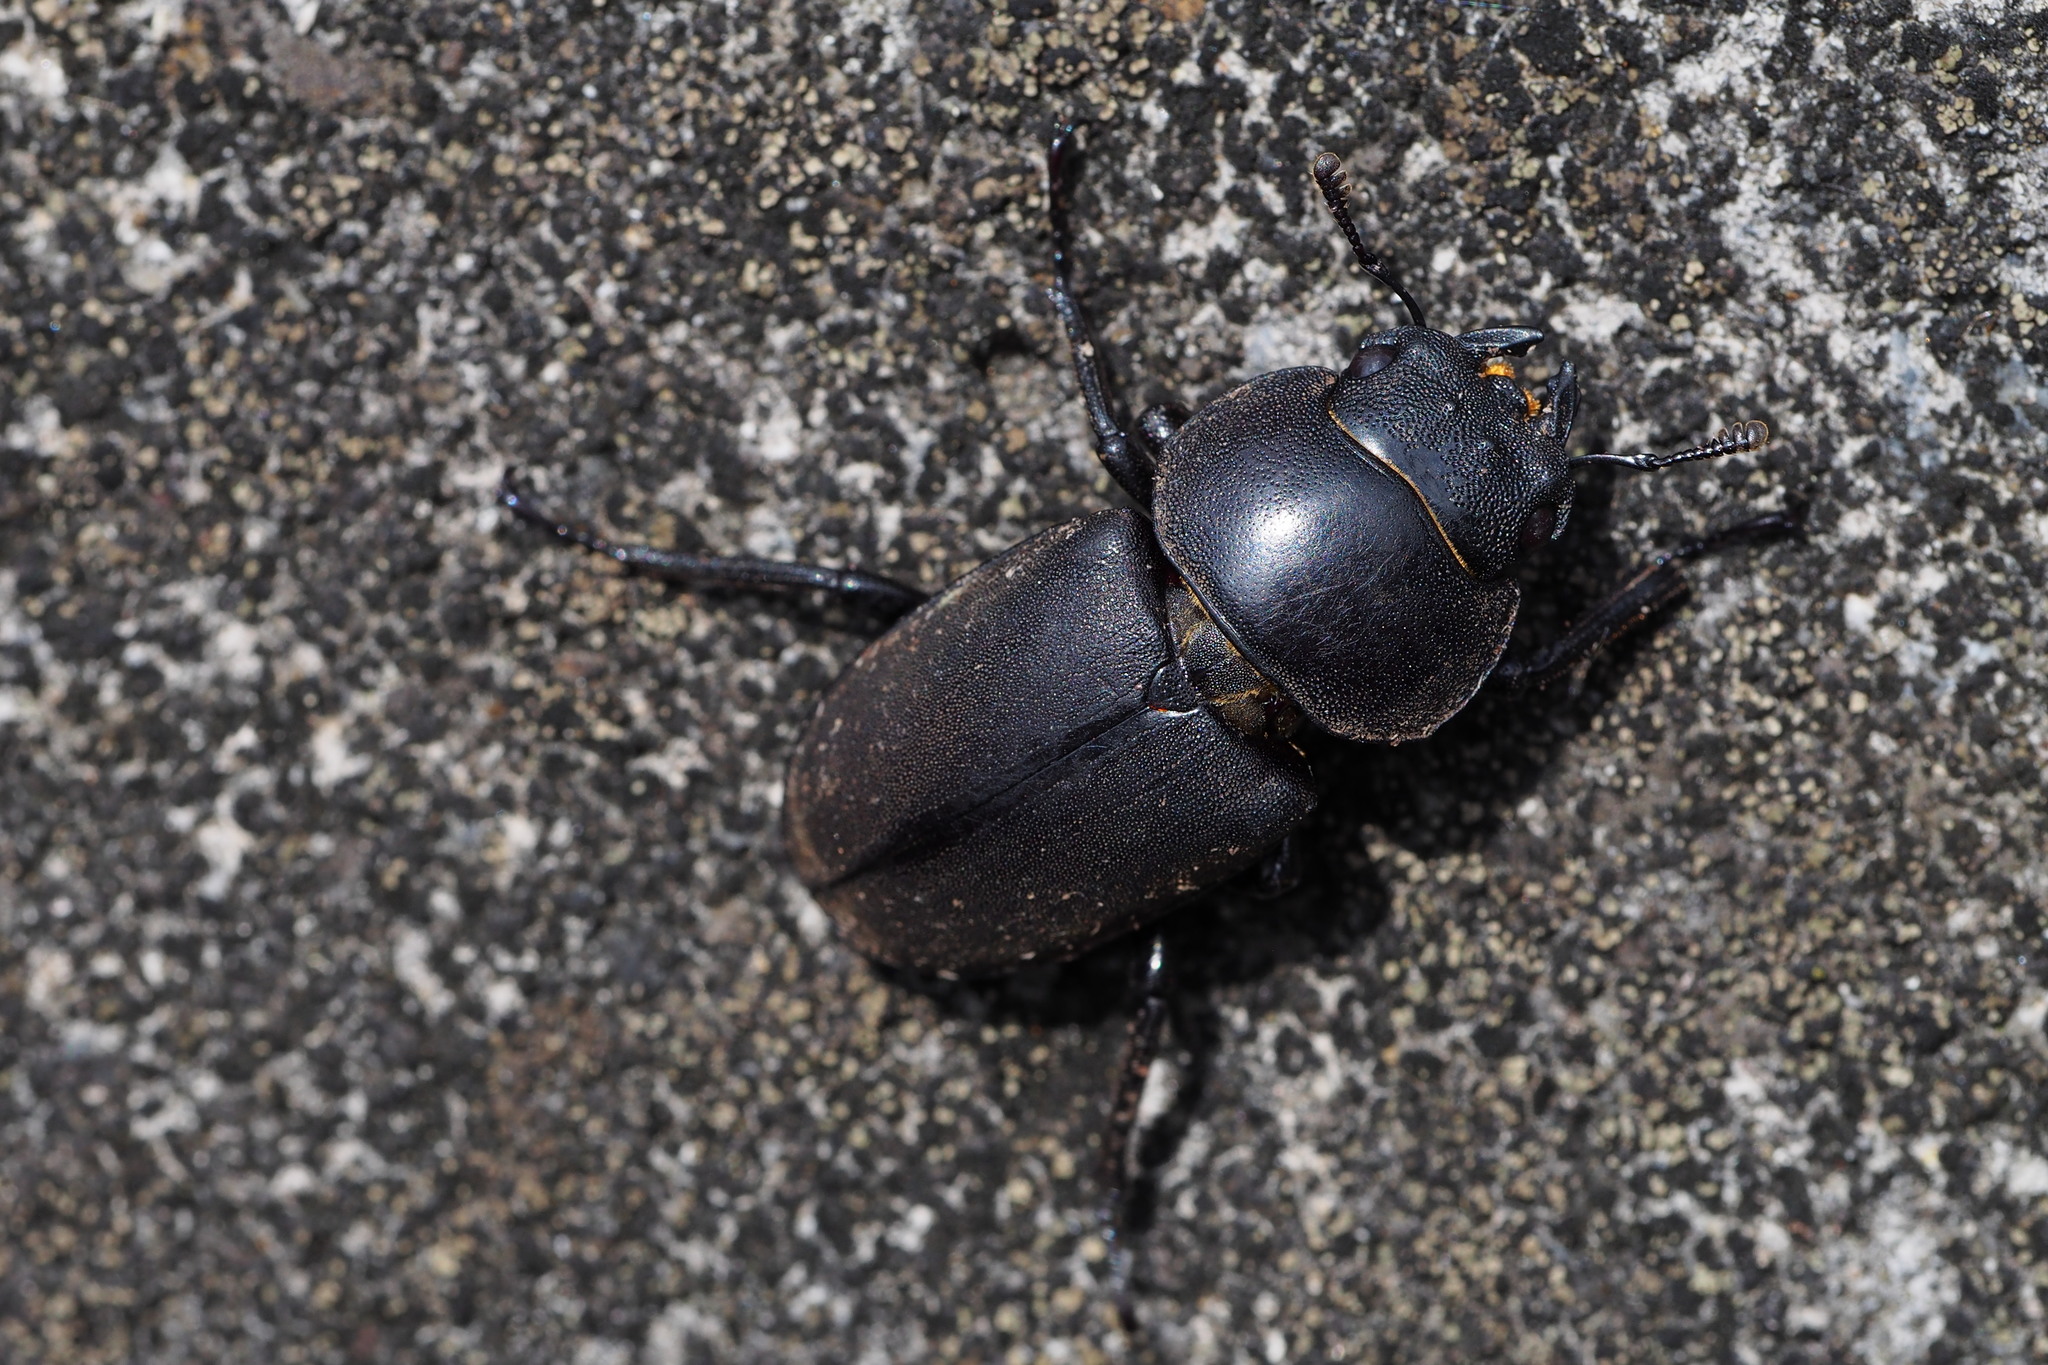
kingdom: Animalia
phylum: Arthropoda
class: Insecta
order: Coleoptera
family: Lucanidae
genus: Dorcus
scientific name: Dorcus rectus
